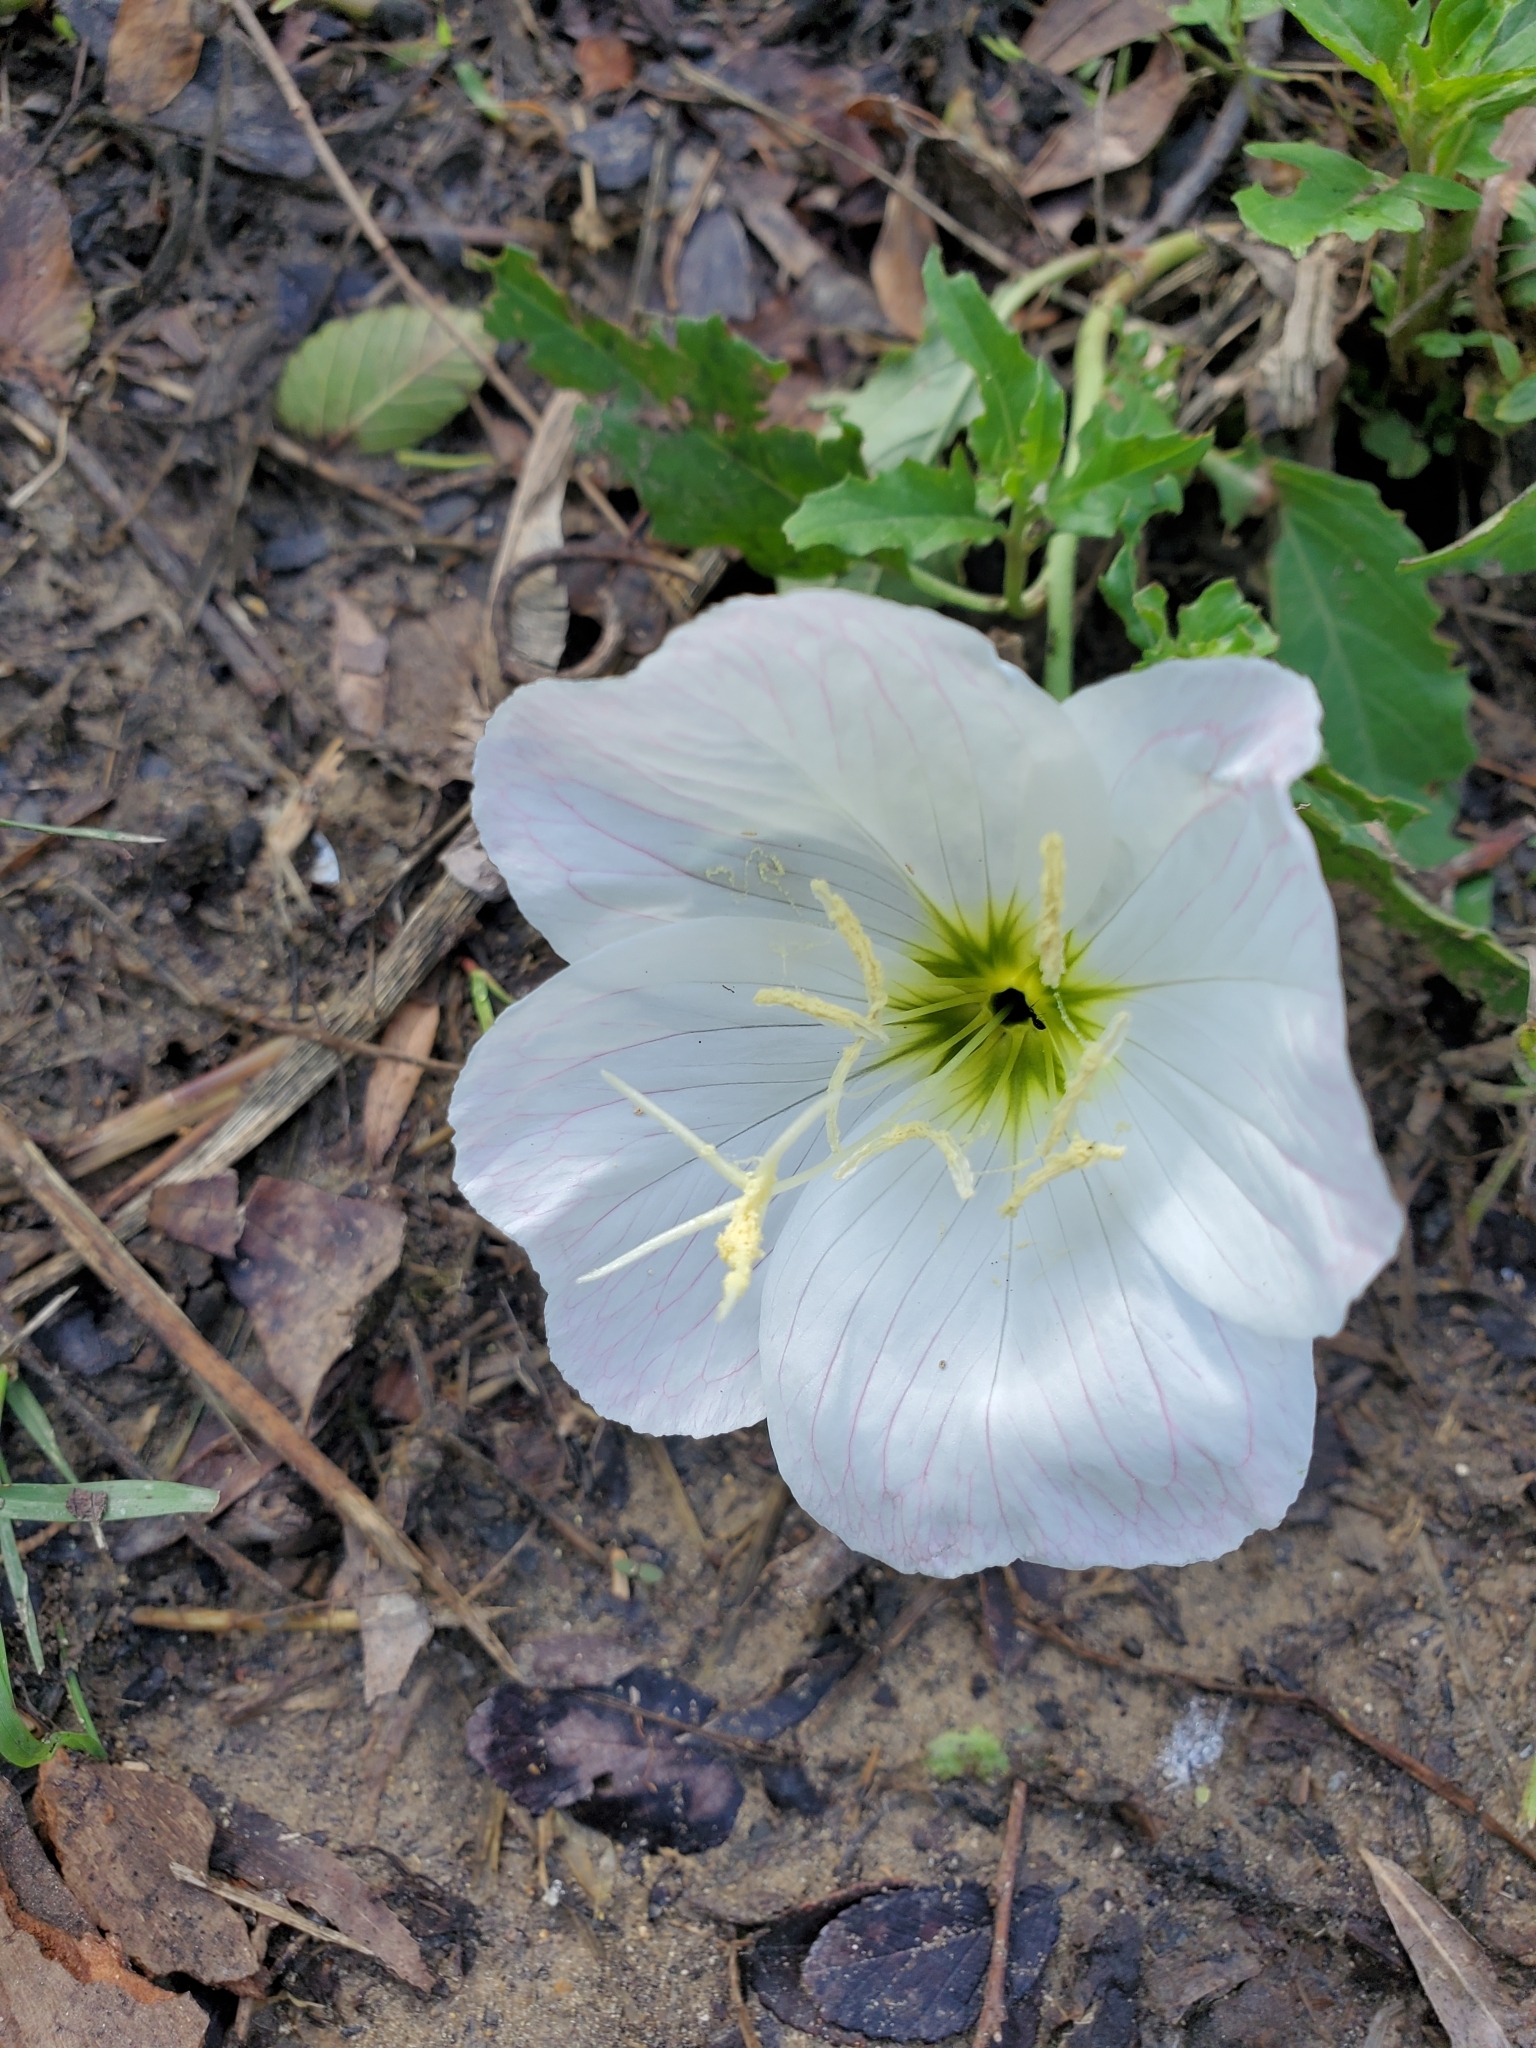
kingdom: Plantae
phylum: Tracheophyta
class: Magnoliopsida
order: Myrtales
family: Onagraceae
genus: Oenothera
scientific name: Oenothera speciosa
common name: White evening-primrose
